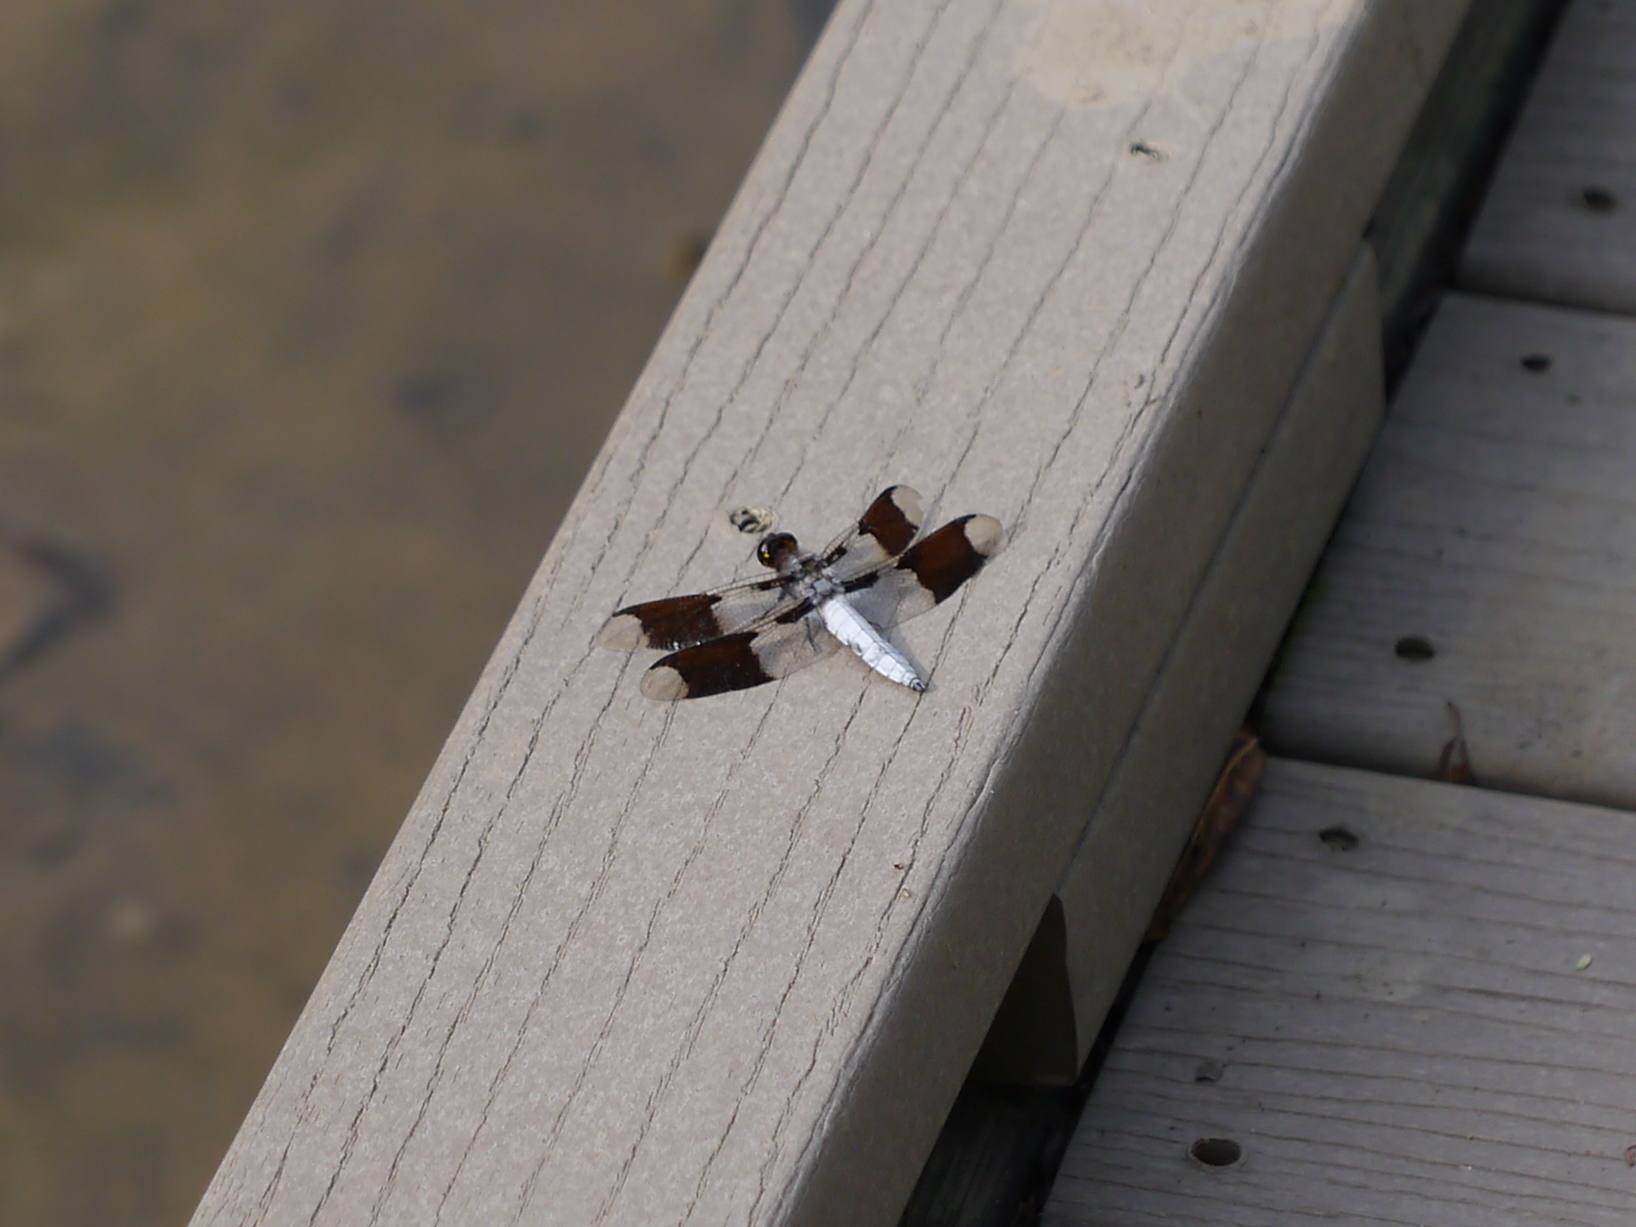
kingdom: Animalia
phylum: Arthropoda
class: Insecta
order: Odonata
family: Libellulidae
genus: Plathemis
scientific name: Plathemis lydia
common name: Common whitetail
